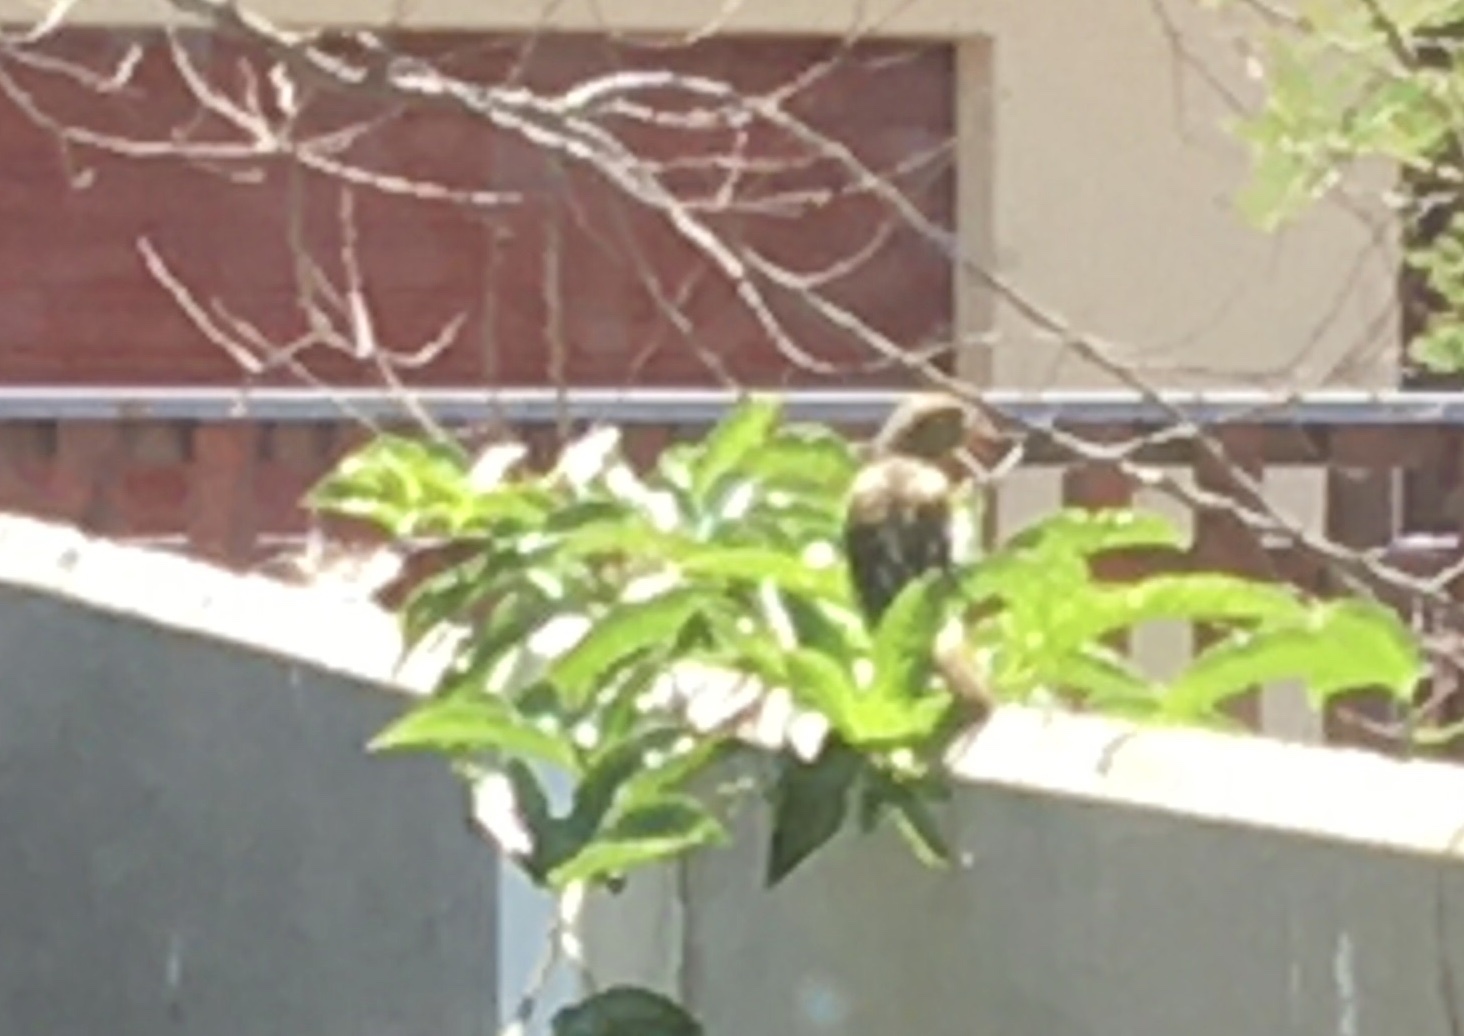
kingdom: Animalia
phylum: Chordata
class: Aves
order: Passeriformes
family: Fringillidae
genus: Serinus
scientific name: Serinus canicollis
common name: Cape canary
